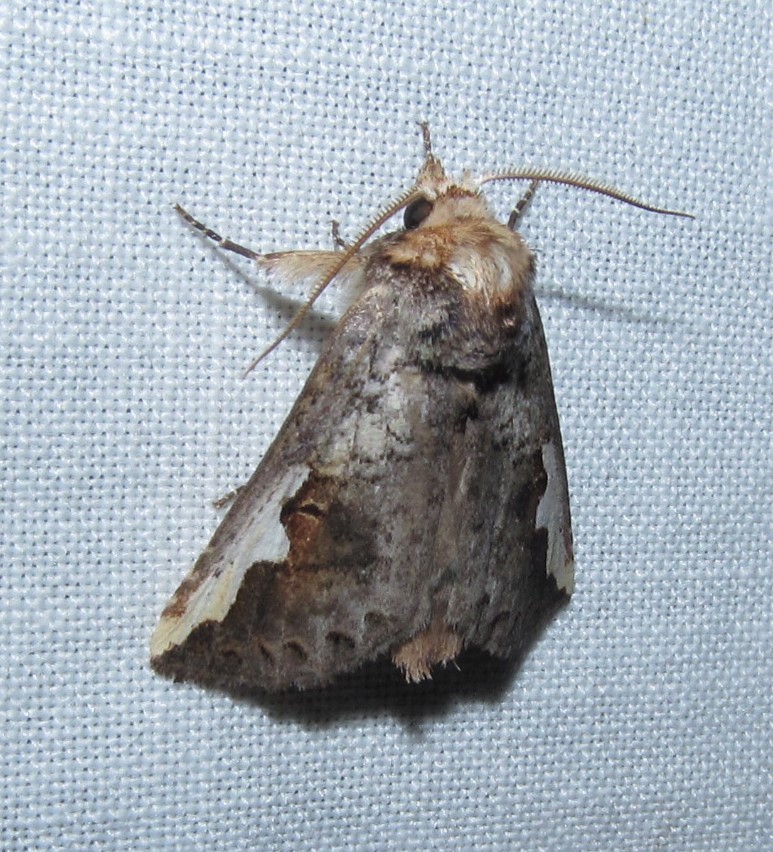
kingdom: Animalia
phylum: Arthropoda
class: Insecta
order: Lepidoptera
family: Notodontidae
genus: Symmerista
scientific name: Symmerista albifrons
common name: White-headed prominent
